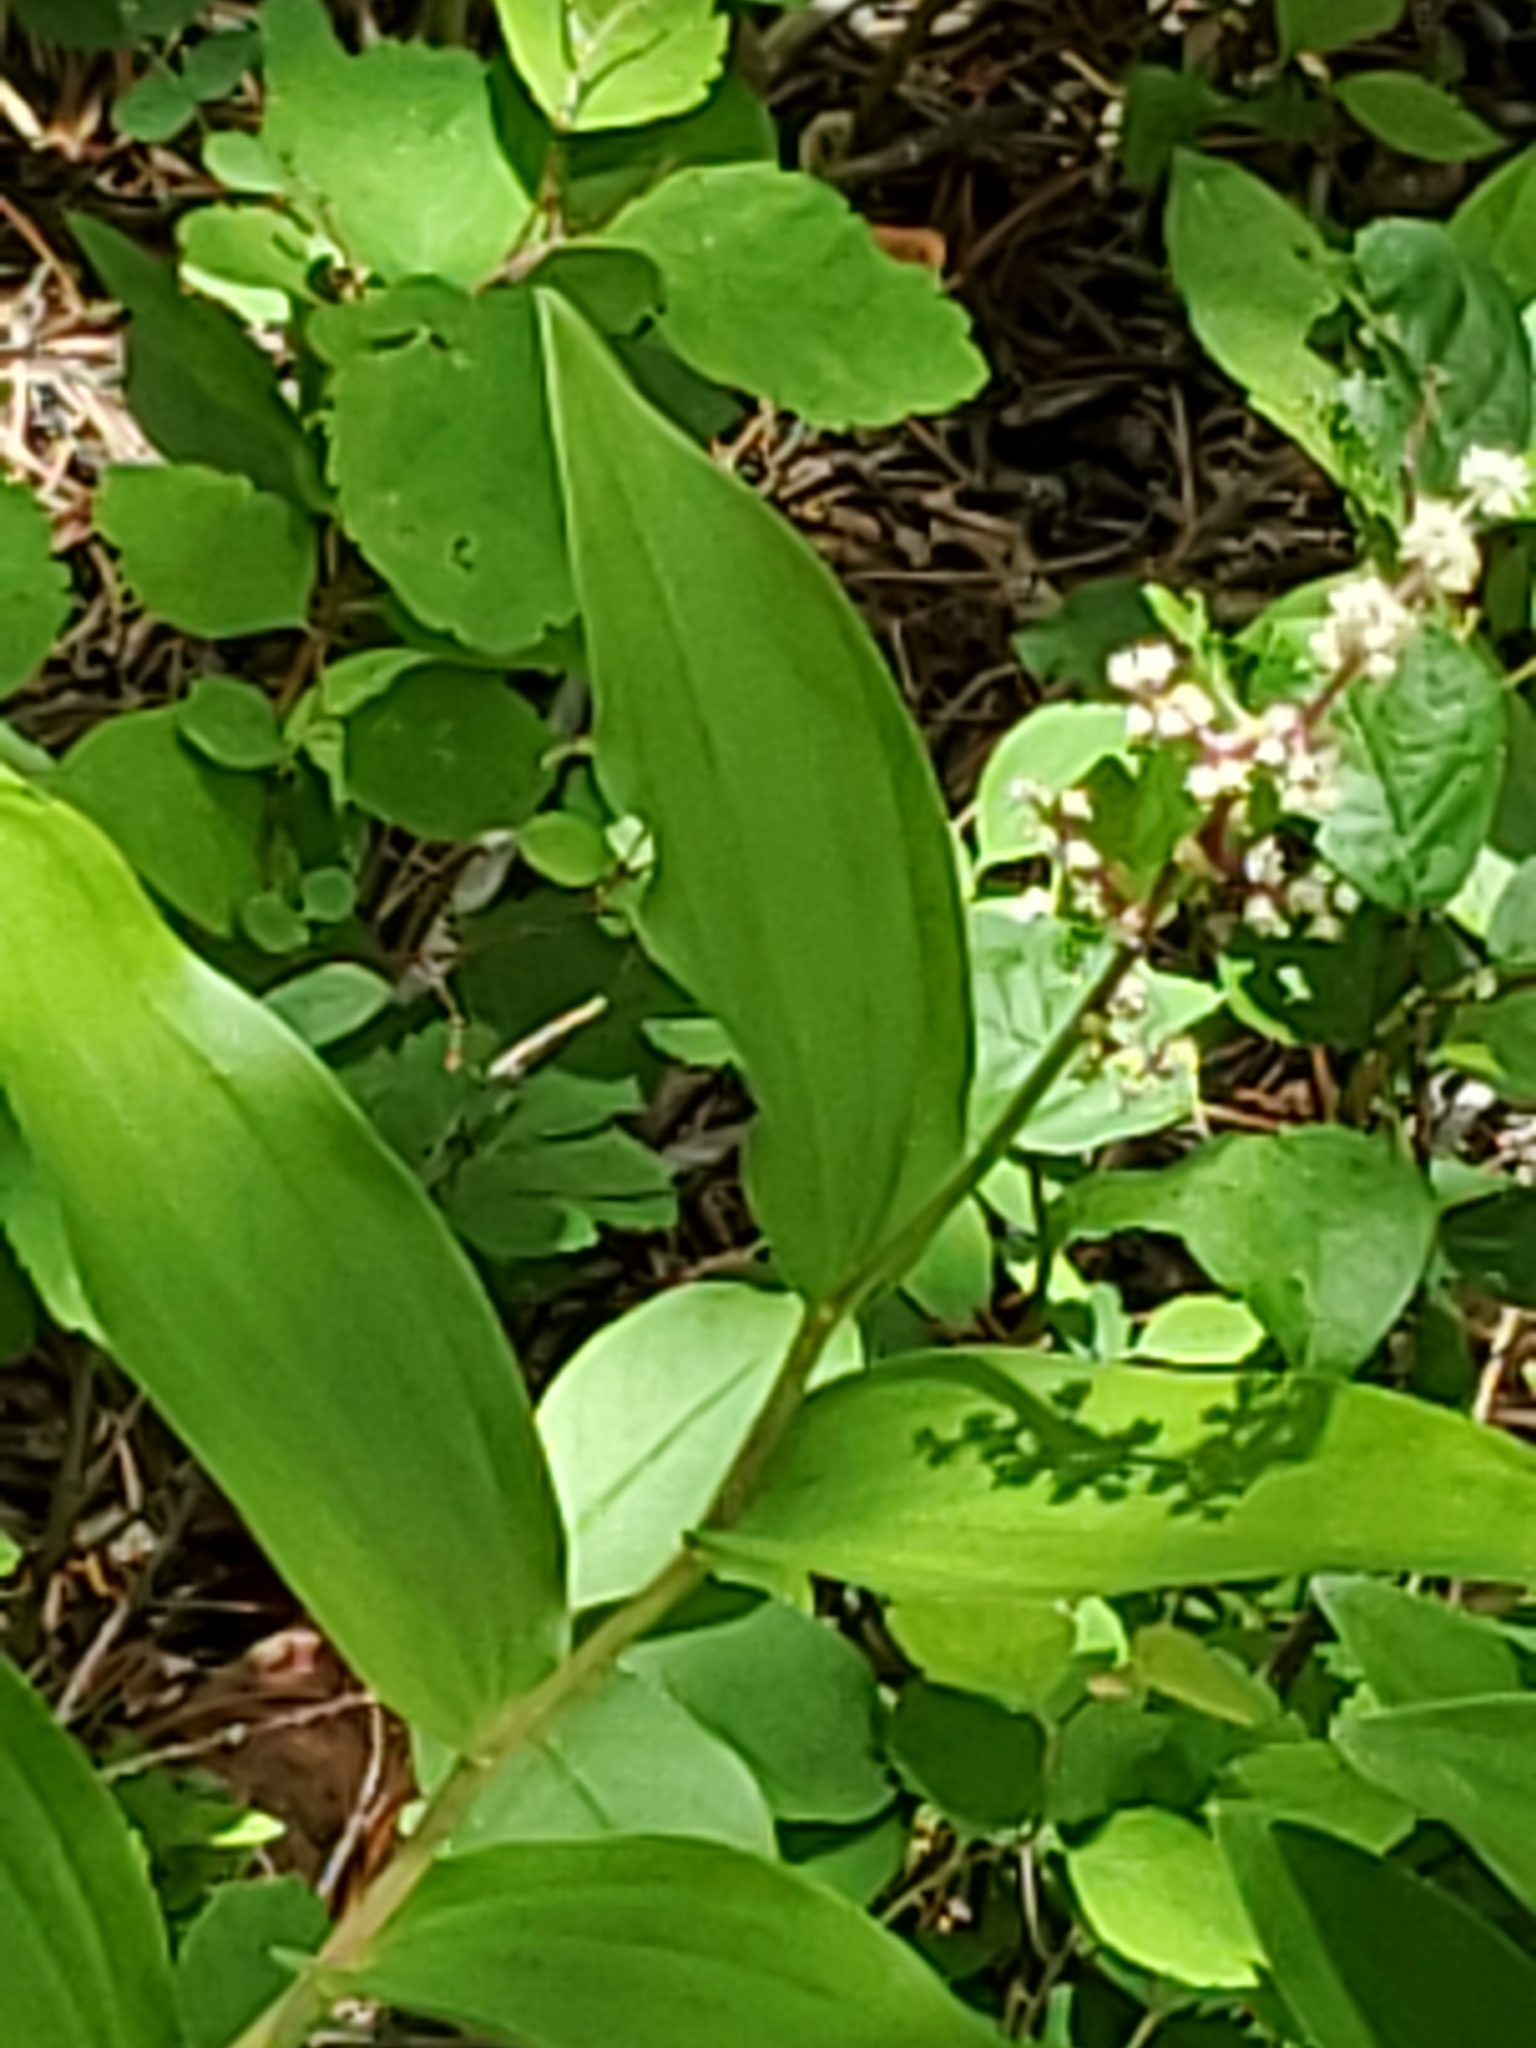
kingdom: Plantae
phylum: Tracheophyta
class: Liliopsida
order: Asparagales
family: Asparagaceae
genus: Maianthemum
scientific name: Maianthemum racemosum
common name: False spikenard
